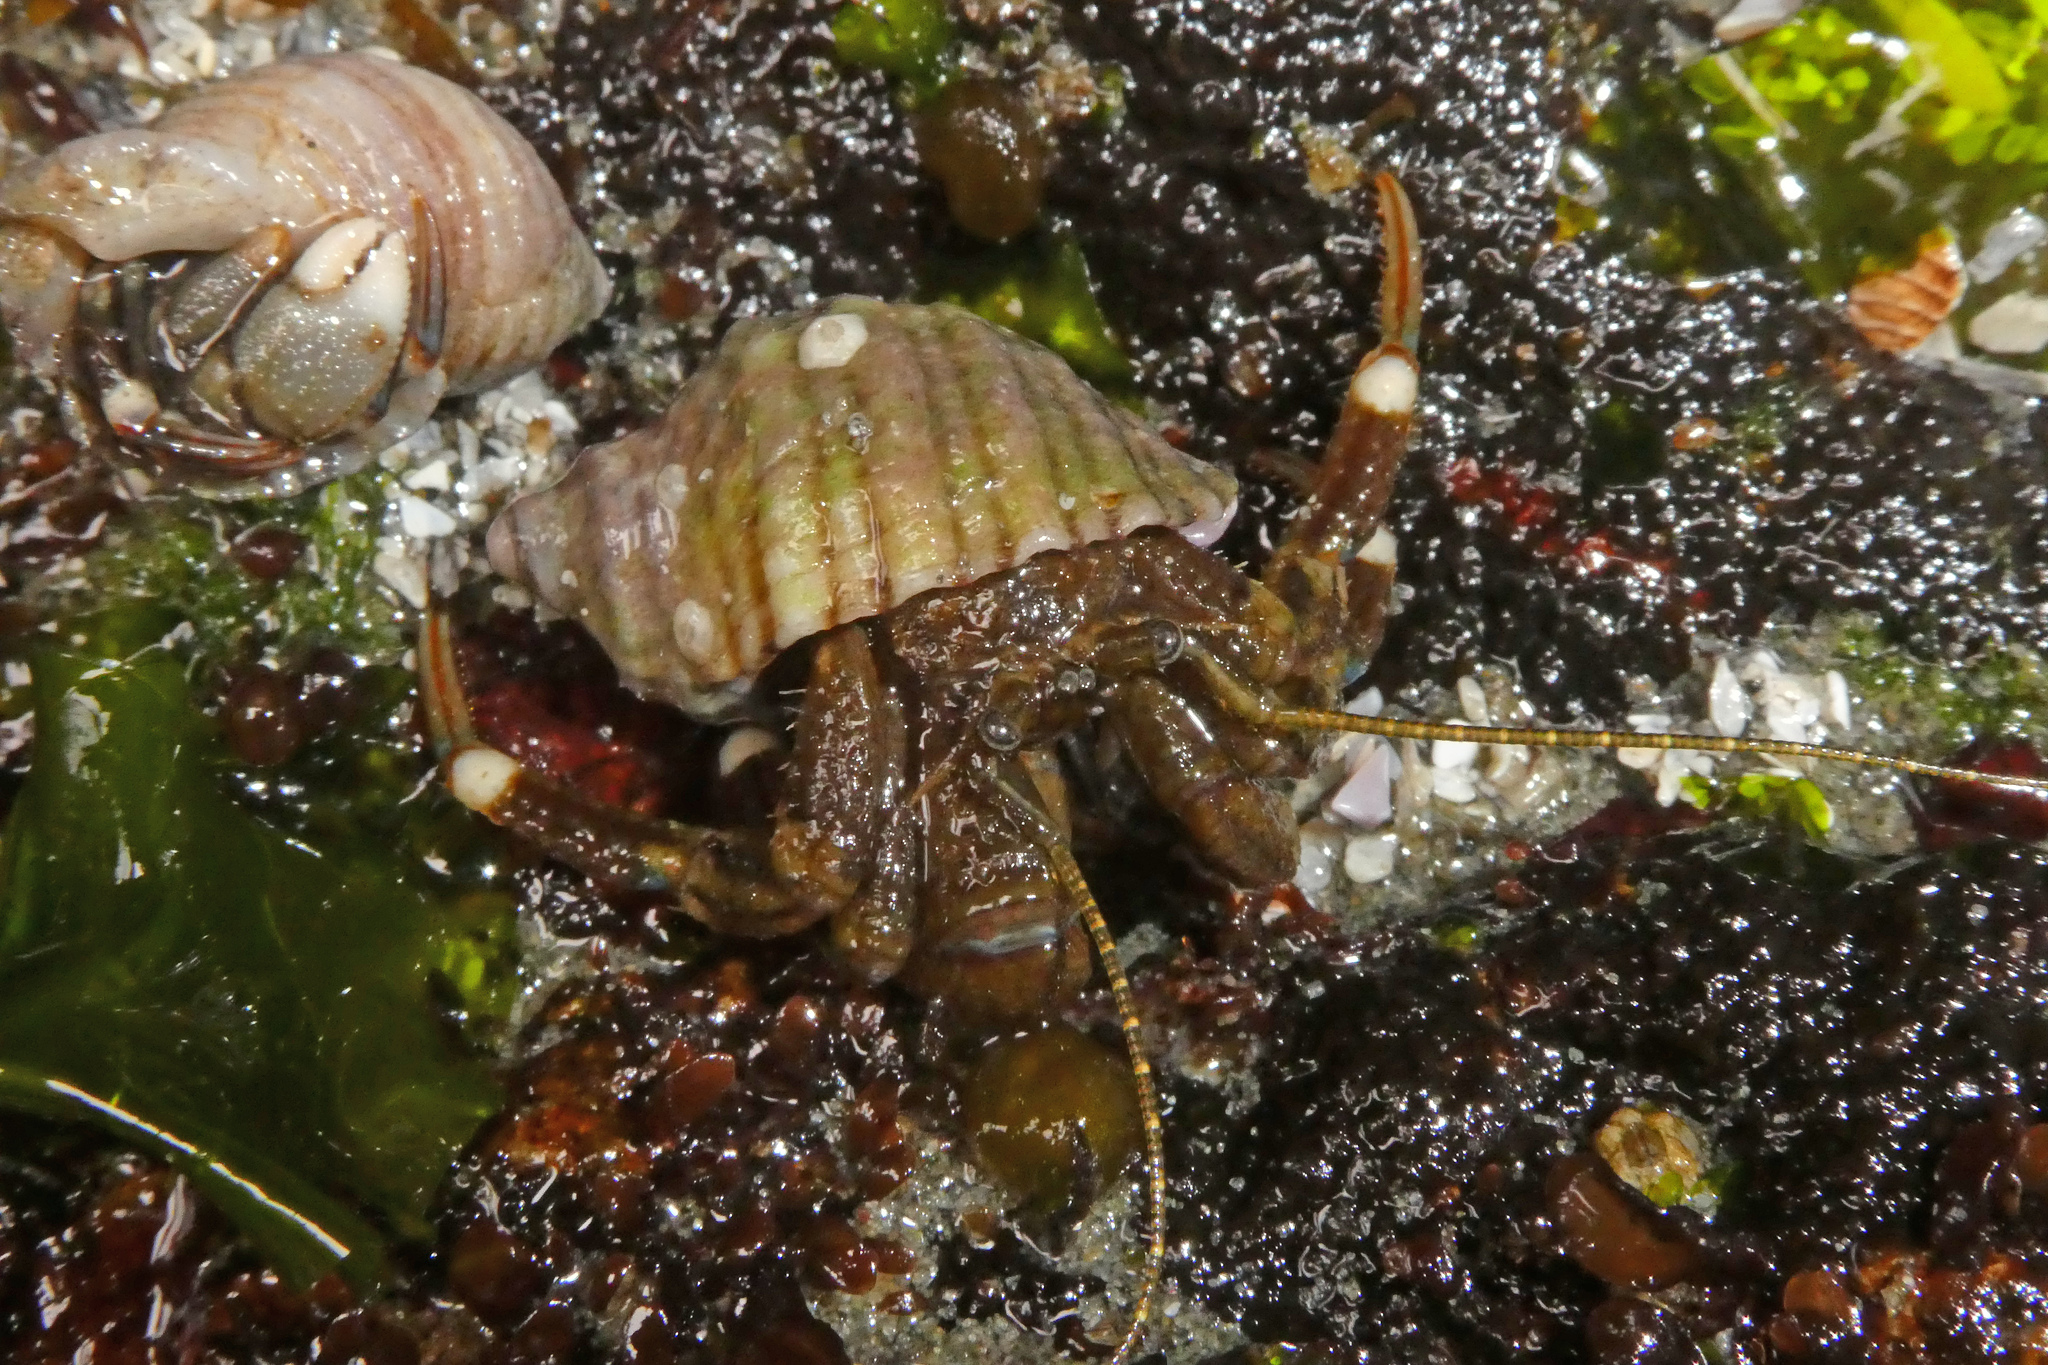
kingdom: Animalia
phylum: Arthropoda
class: Malacostraca
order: Decapoda
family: Paguridae
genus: Pagurus
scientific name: Pagurus hirsutiusculus
